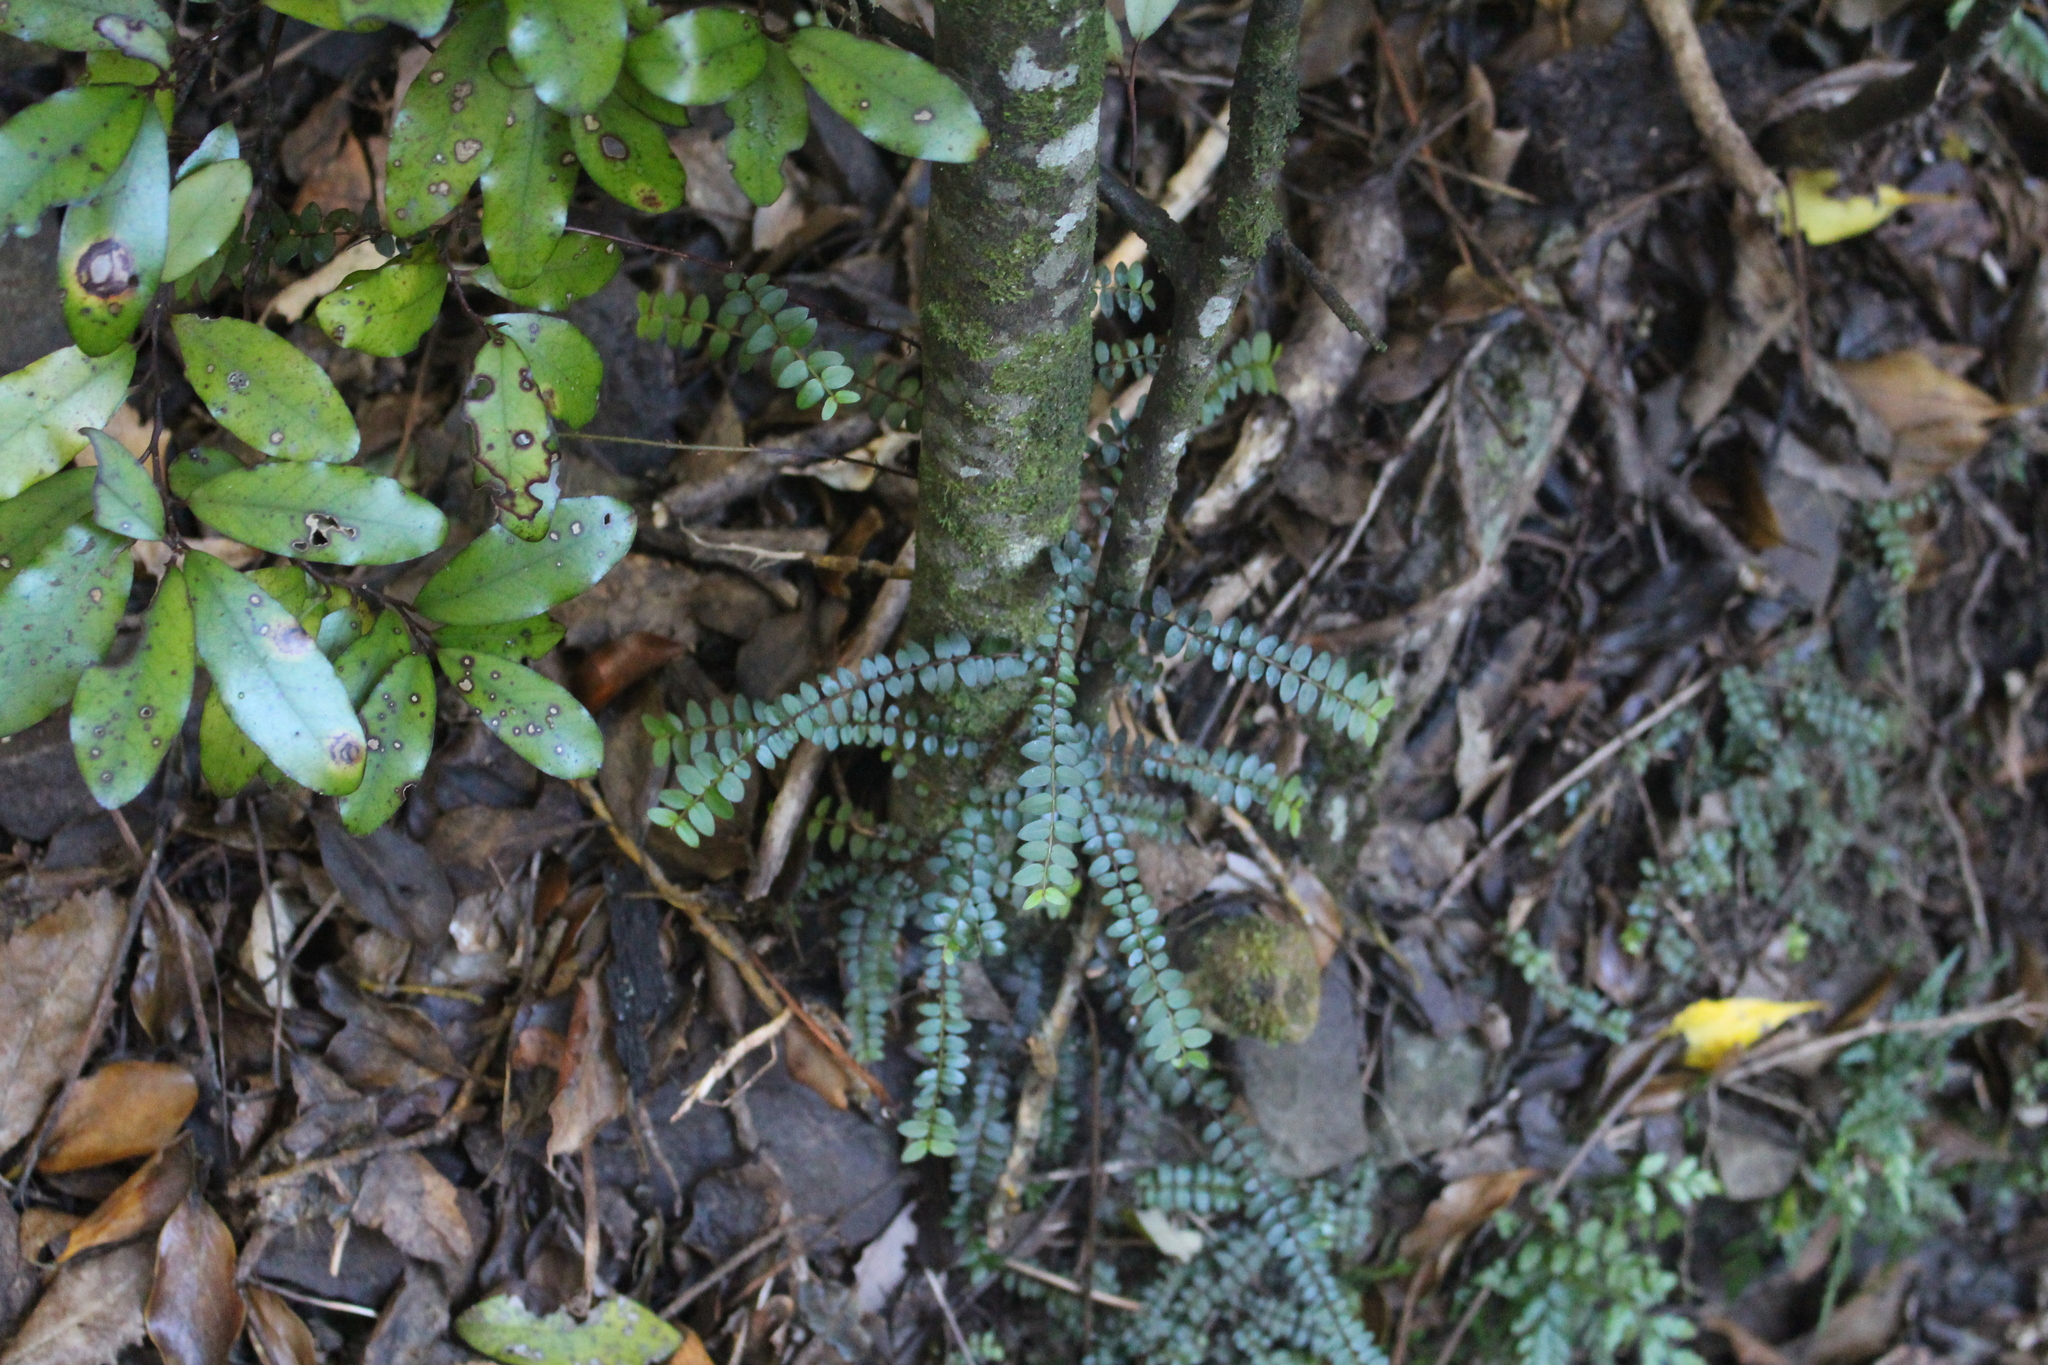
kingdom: Plantae
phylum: Tracheophyta
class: Magnoliopsida
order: Myrtales
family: Myrtaceae
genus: Metrosideros
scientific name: Metrosideros diffusa
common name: Small ratavine
